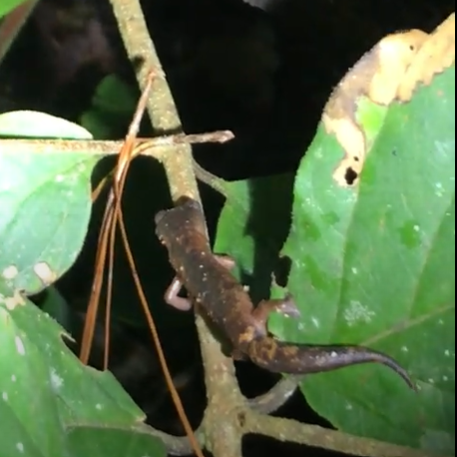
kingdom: Animalia
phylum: Chordata
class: Amphibia
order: Caudata
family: Plethodontidae
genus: Bolitoglossa
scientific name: Bolitoglossa diaphora
